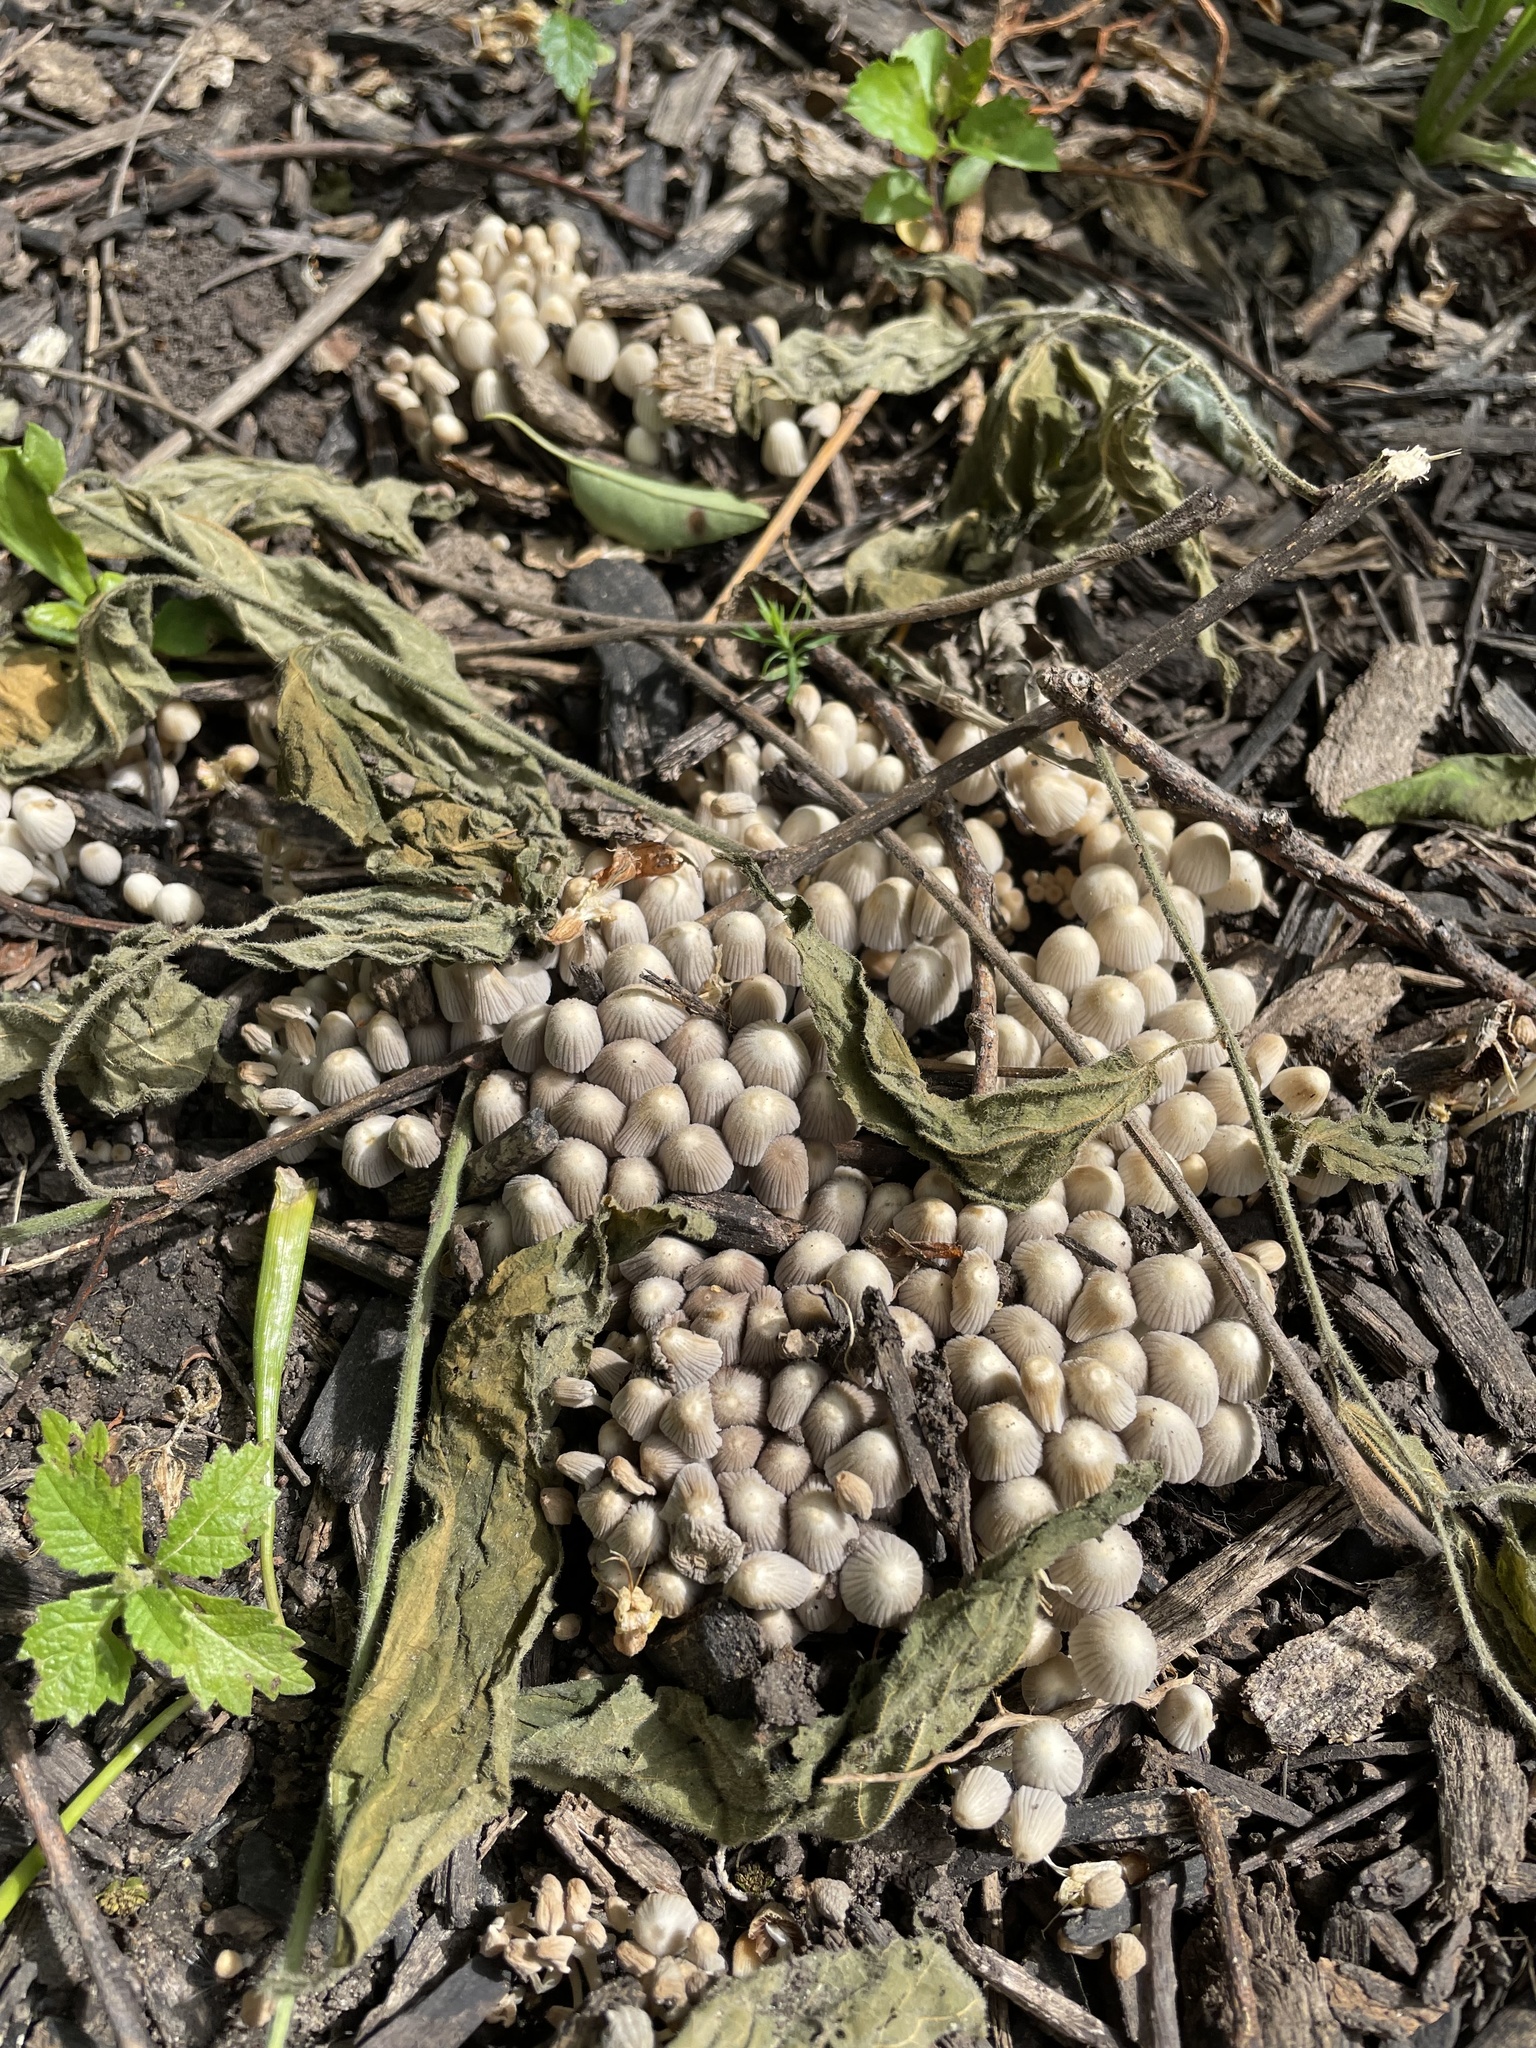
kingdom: Fungi
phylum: Basidiomycota
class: Agaricomycetes
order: Agaricales
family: Psathyrellaceae
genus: Coprinellus
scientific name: Coprinellus disseminatus
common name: Fairies' bonnets
